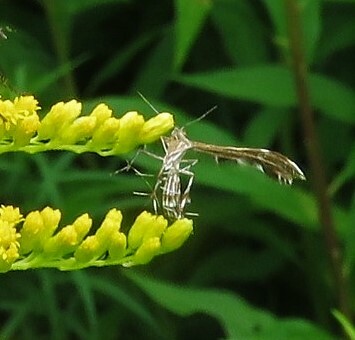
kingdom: Animalia
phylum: Arthropoda
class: Insecta
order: Lepidoptera
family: Pterophoridae
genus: Dejongia
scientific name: Dejongia lobidactylus
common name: Lobed plume moth
